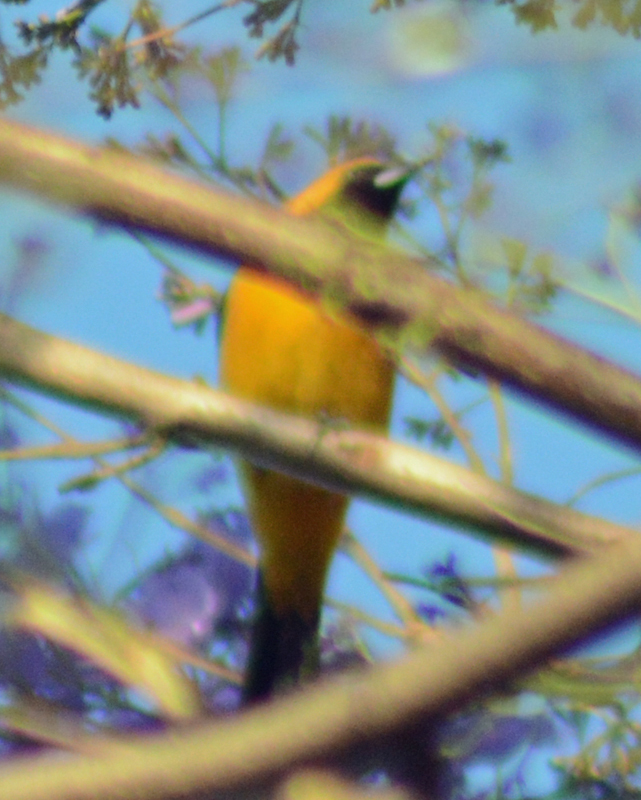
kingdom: Animalia
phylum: Chordata
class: Aves
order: Passeriformes
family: Icteridae
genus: Icterus
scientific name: Icterus cucullatus
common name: Hooded oriole
